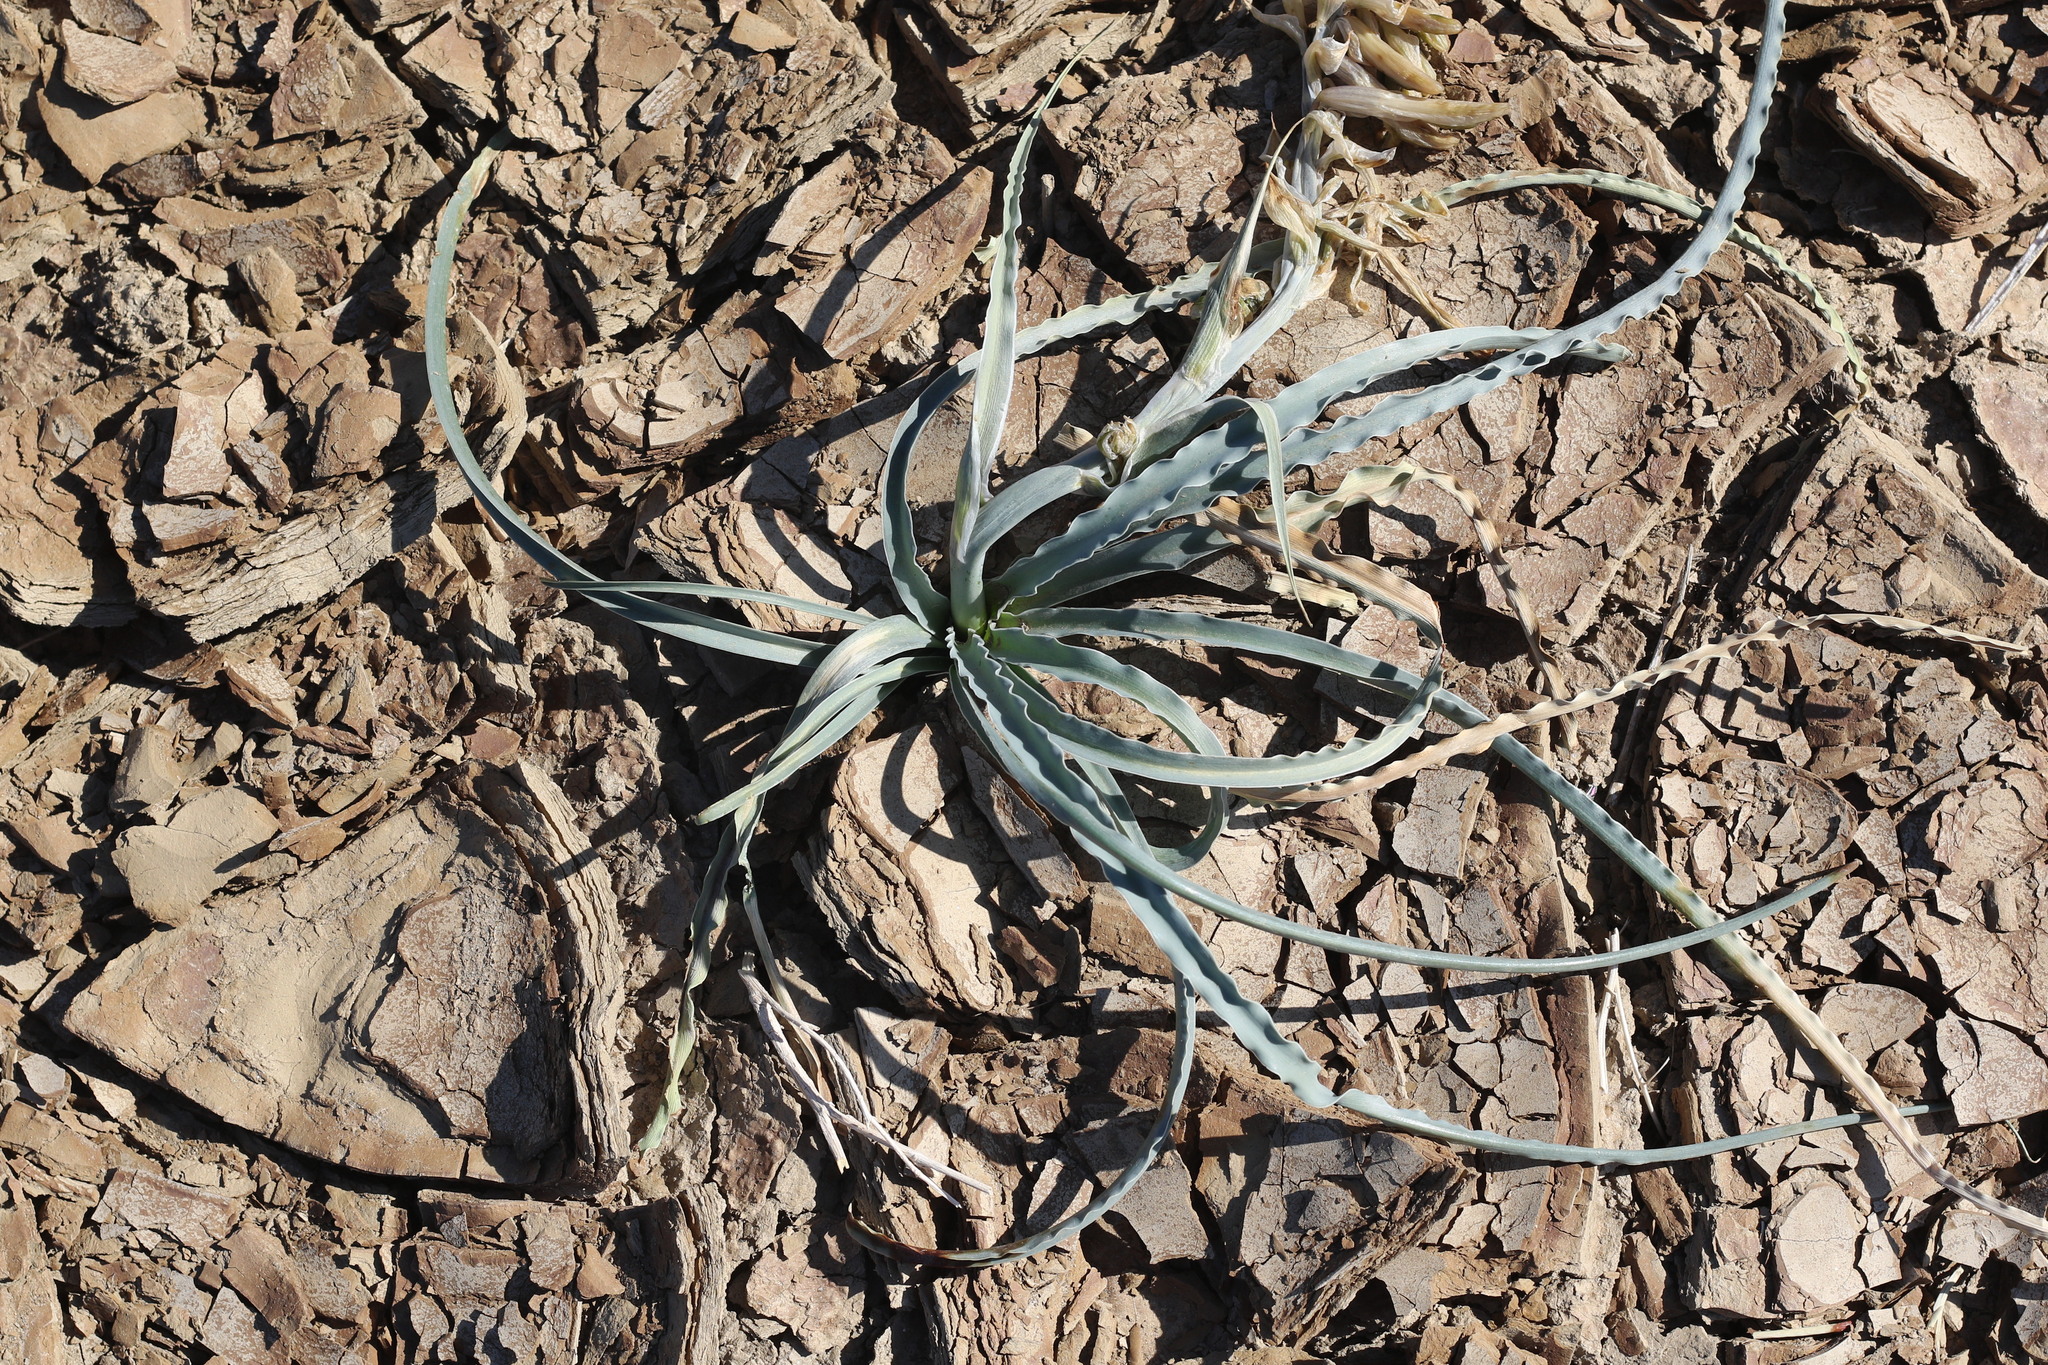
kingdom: Plantae
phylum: Tracheophyta
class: Liliopsida
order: Asparagales
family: Asparagaceae
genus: Hesperocallis
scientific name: Hesperocallis undulata
